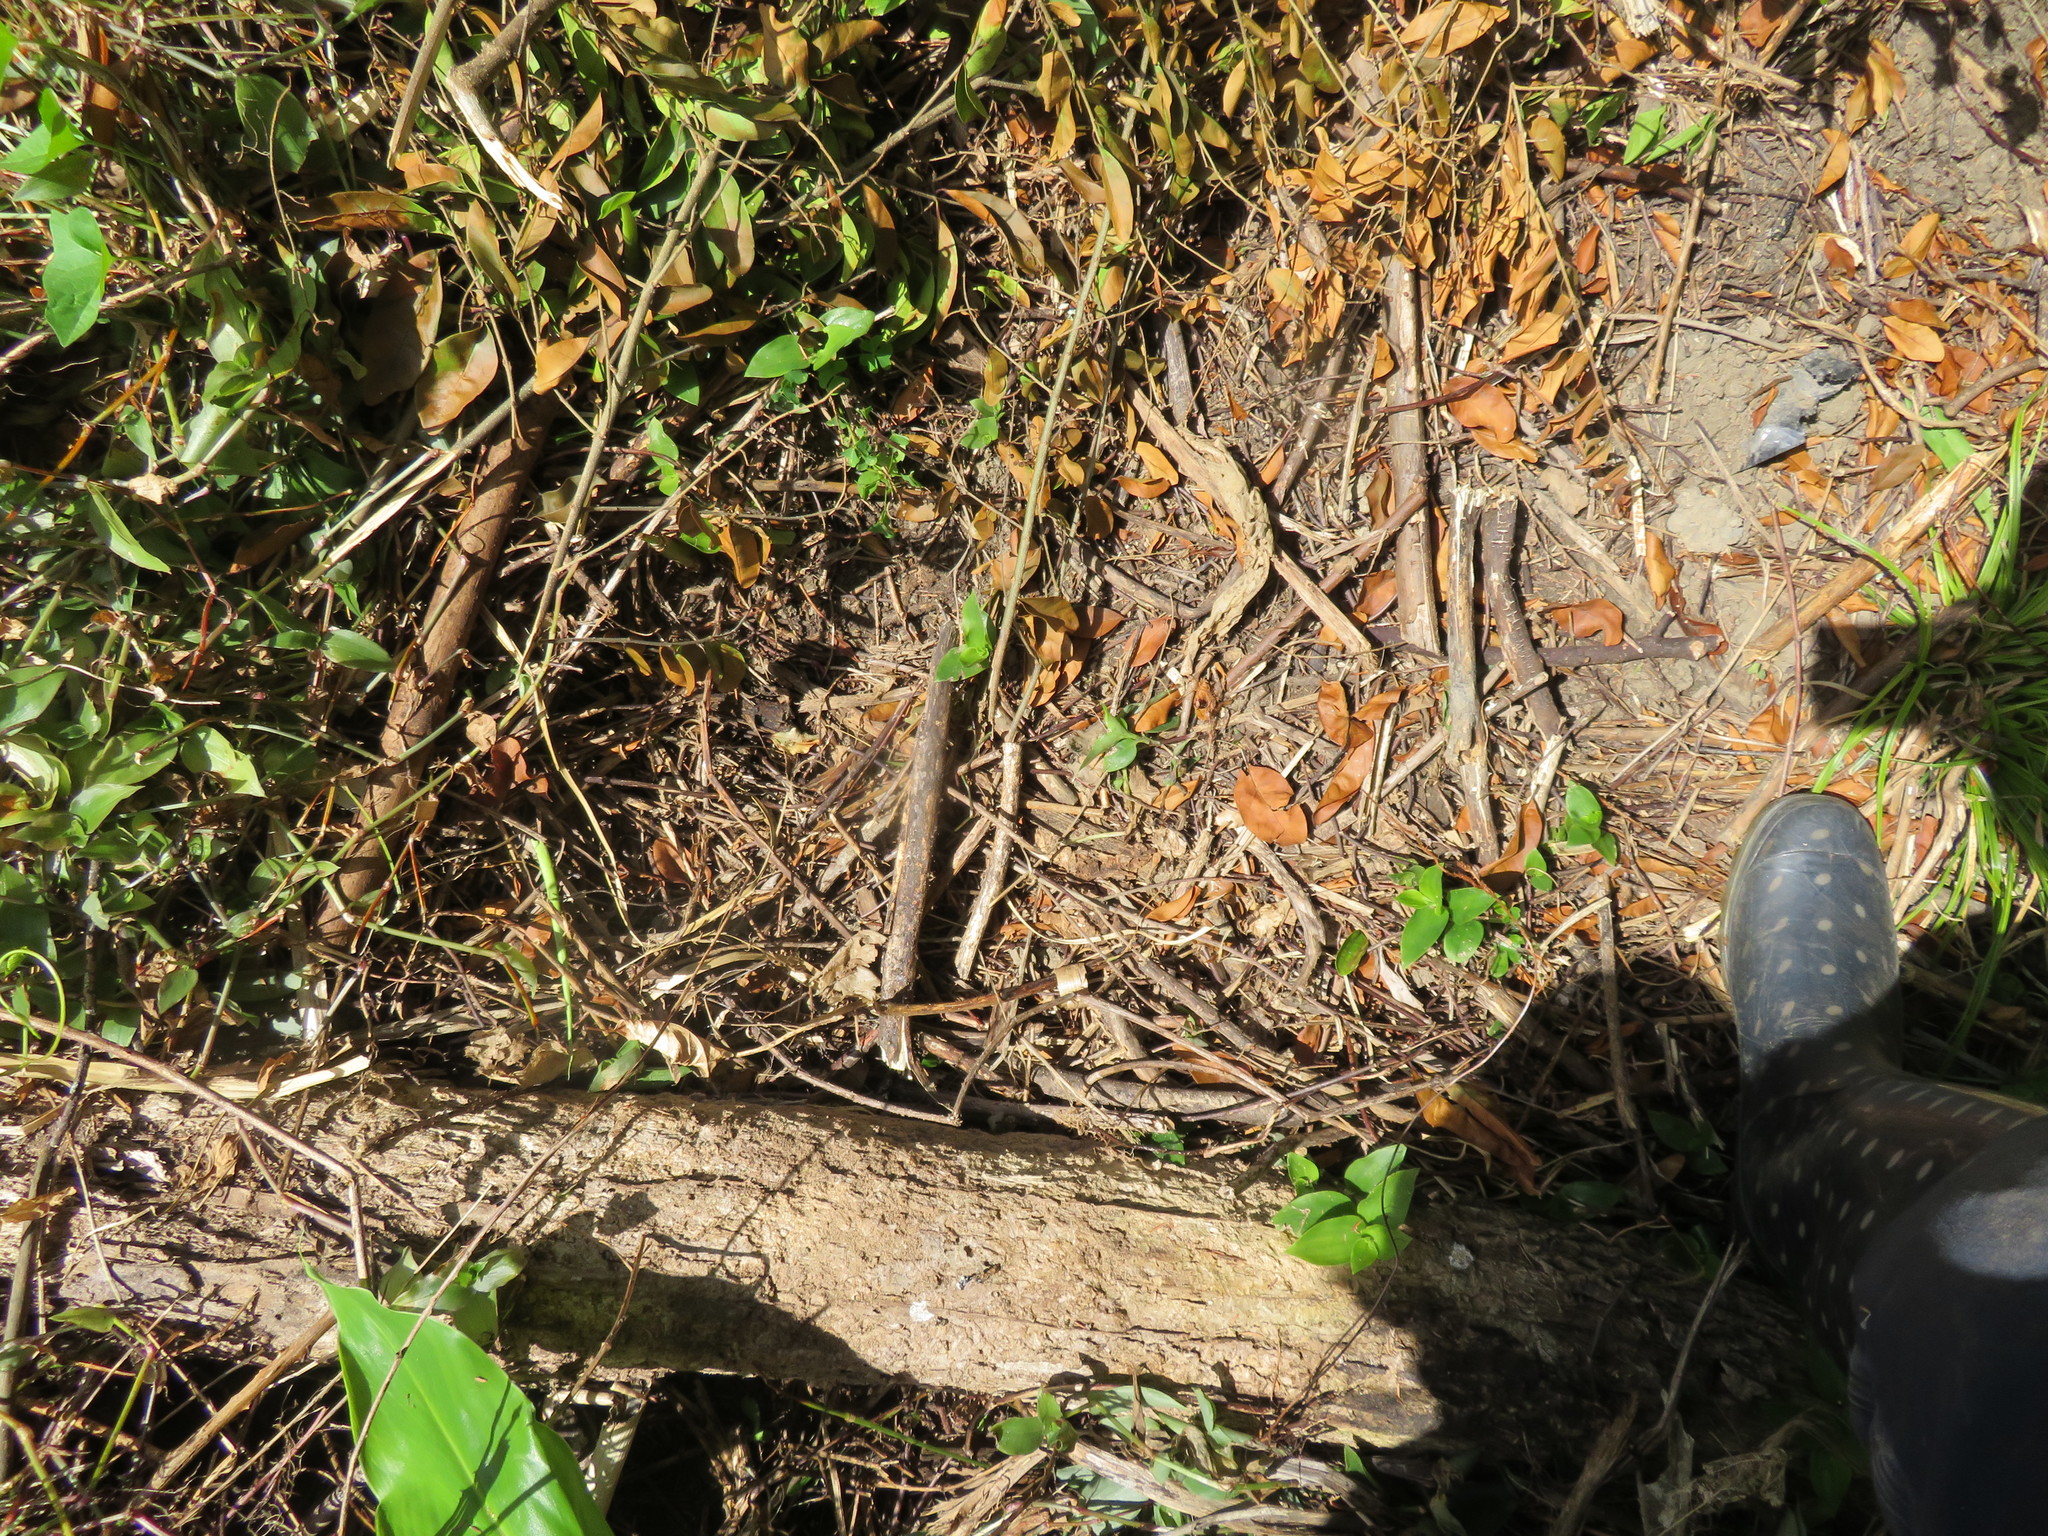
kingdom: Plantae
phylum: Tracheophyta
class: Liliopsida
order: Zingiberales
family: Zingiberaceae
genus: Hedychium
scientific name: Hedychium gardnerianum
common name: Himalayan ginger
